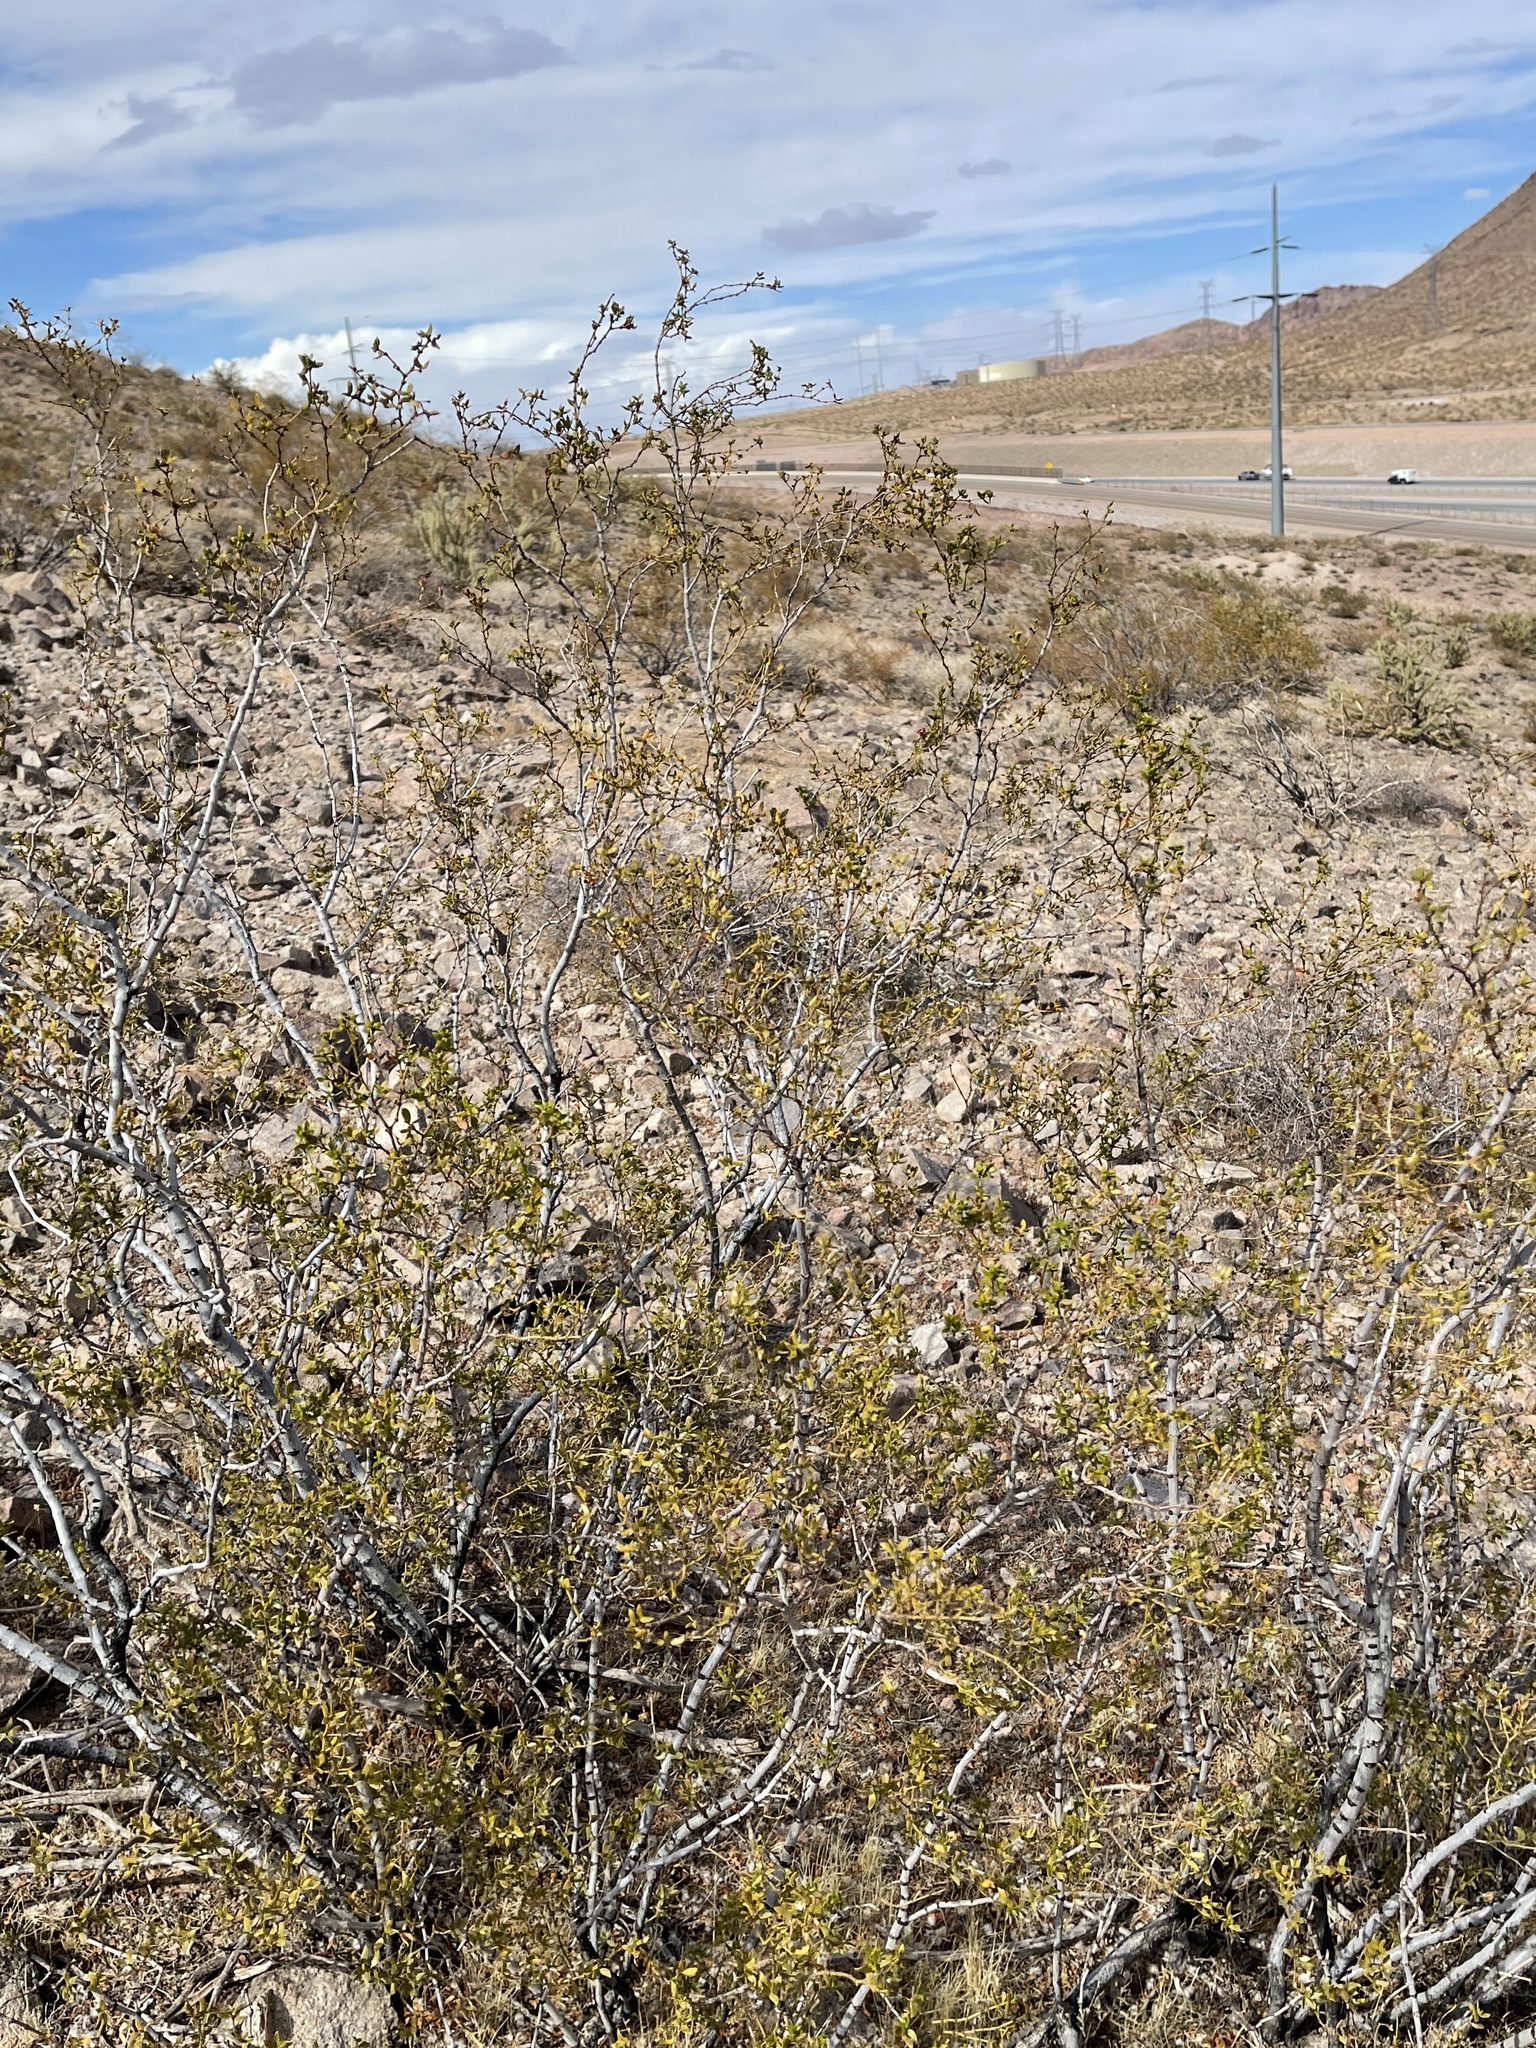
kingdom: Plantae
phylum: Tracheophyta
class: Magnoliopsida
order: Zygophyllales
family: Zygophyllaceae
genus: Larrea
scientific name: Larrea tridentata
